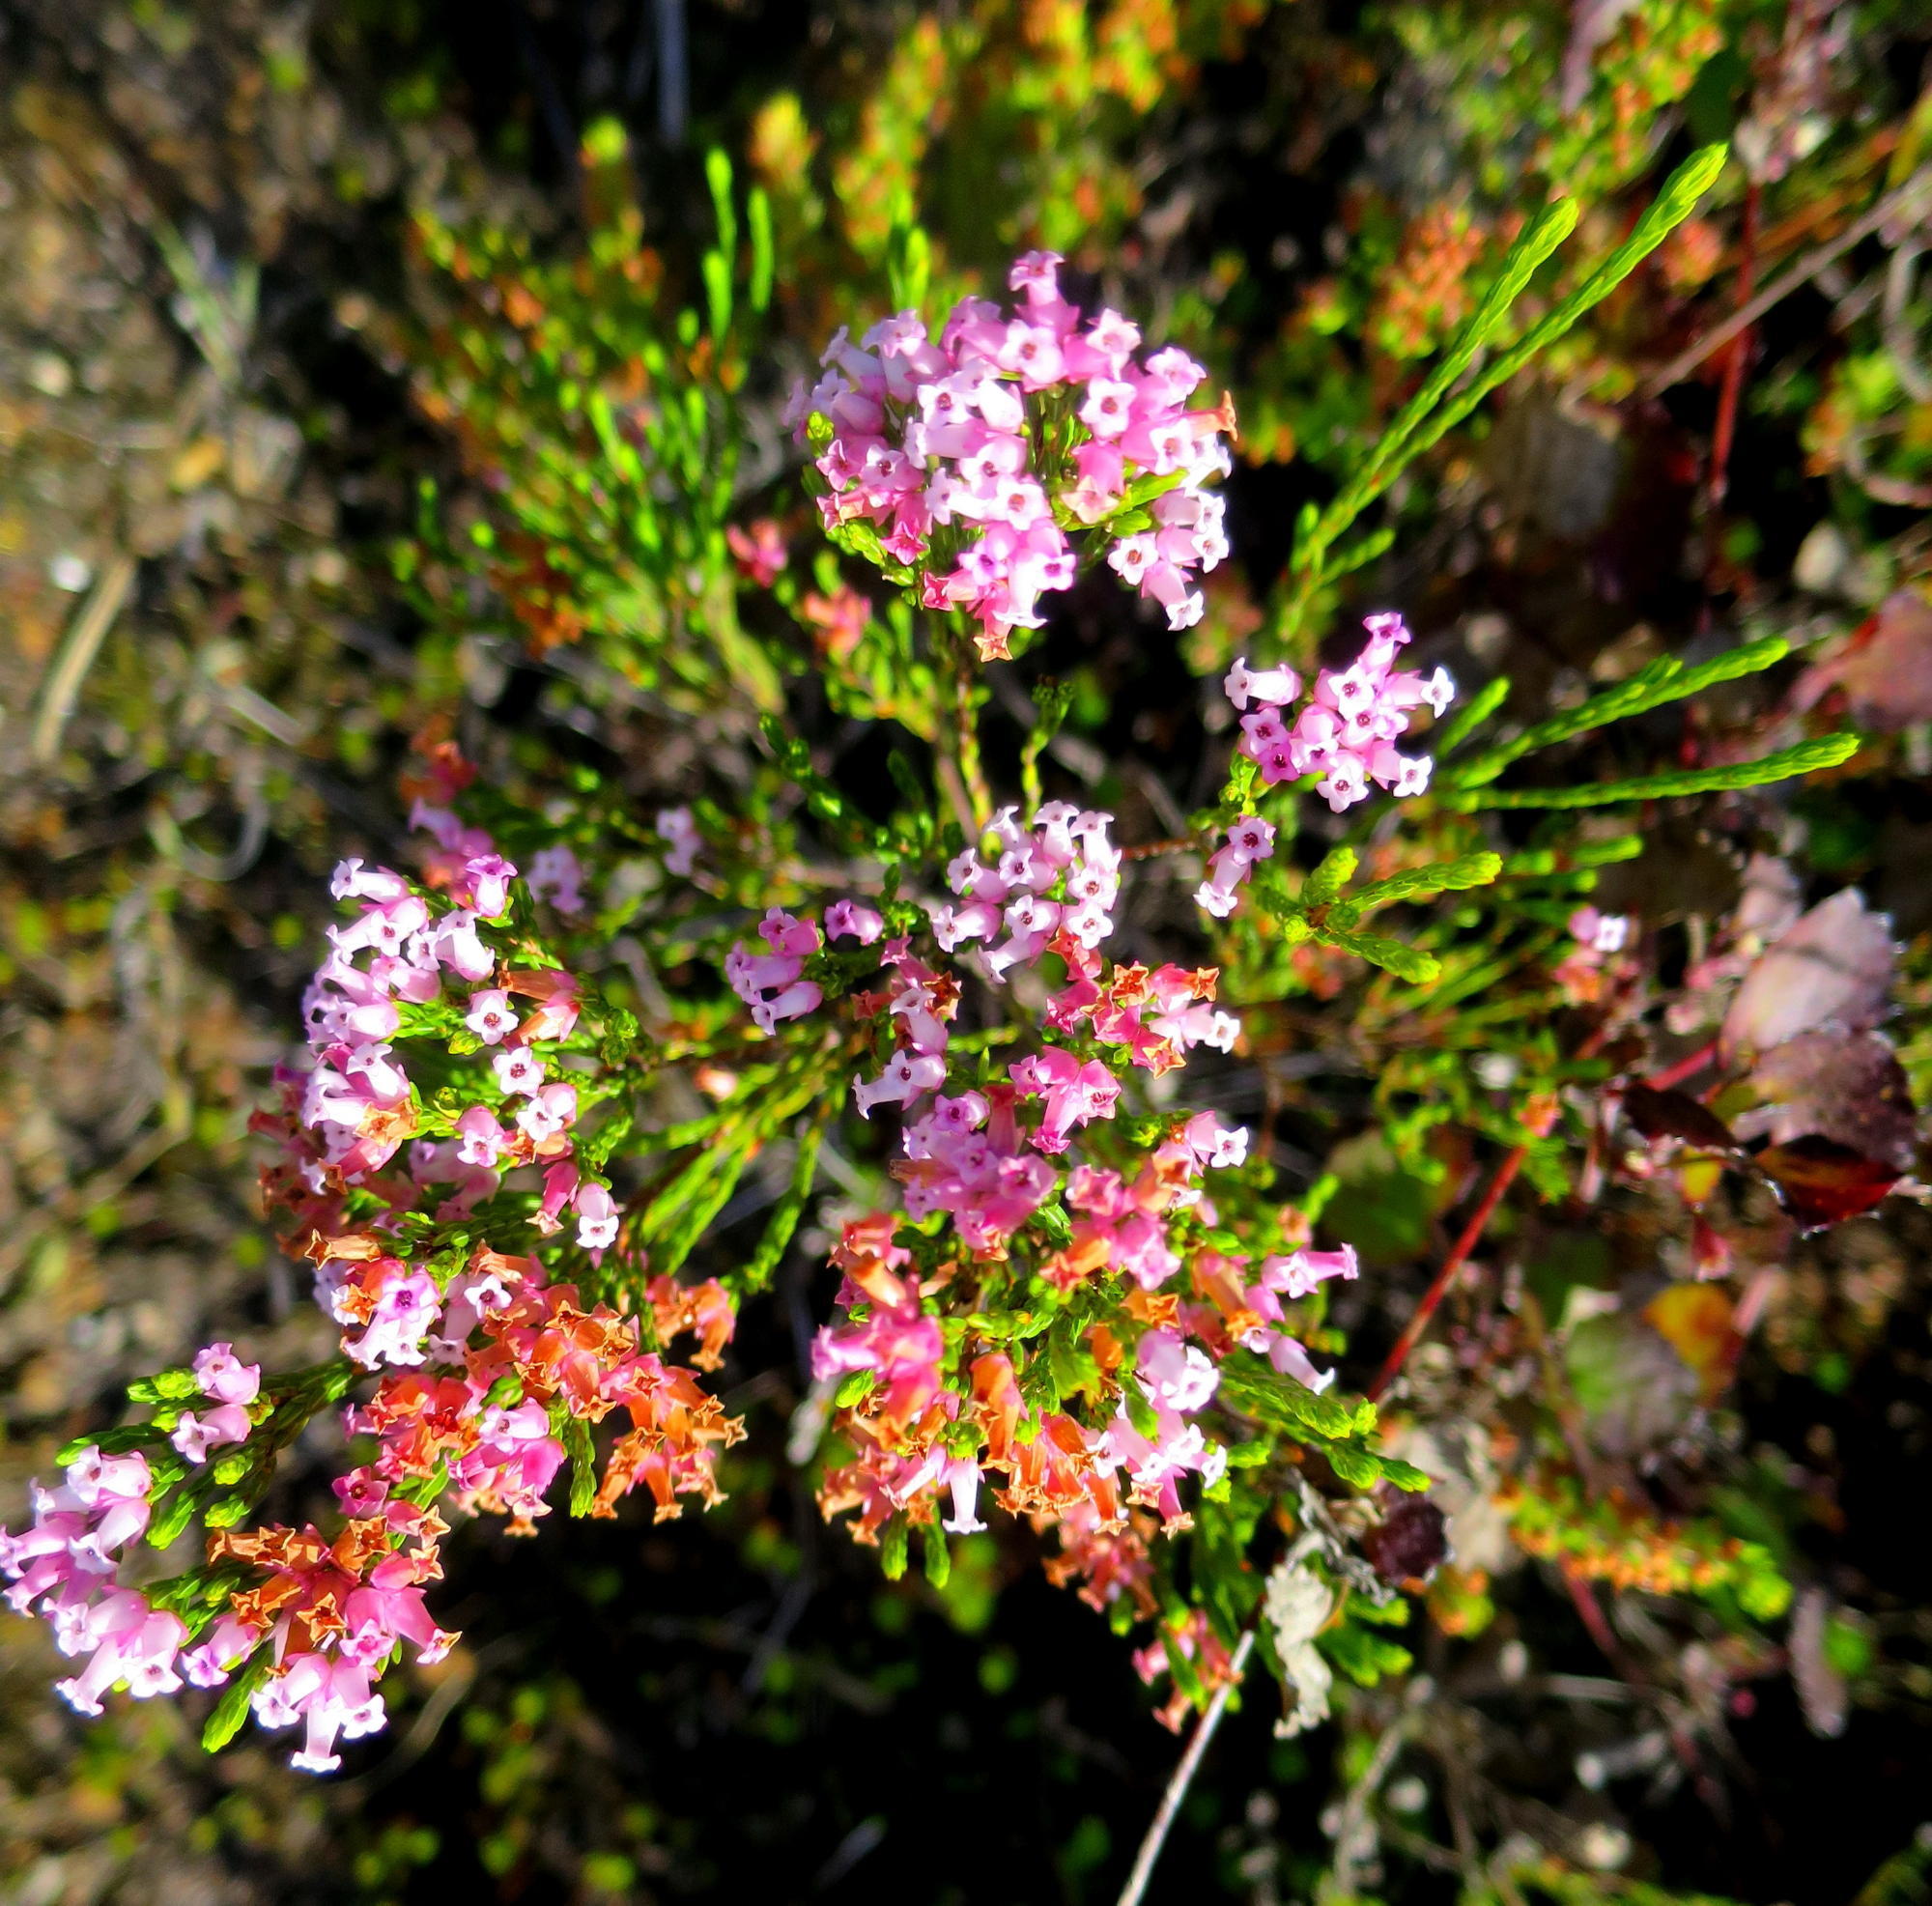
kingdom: Plantae
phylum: Tracheophyta
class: Magnoliopsida
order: Ericales
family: Ericaceae
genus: Erica
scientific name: Erica steinbergiana
